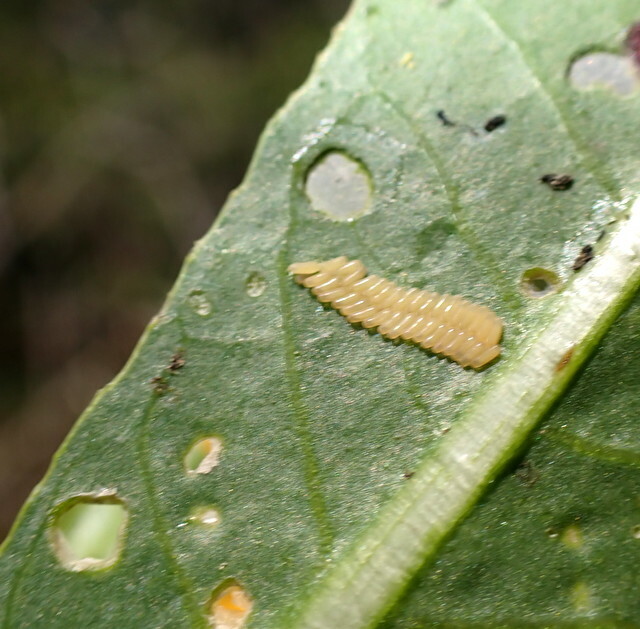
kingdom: Animalia
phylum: Arthropoda
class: Insecta
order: Coleoptera
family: Chrysomelidae
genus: Agasicles
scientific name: Agasicles hygrophila
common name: Alligatorweed flea beetle
